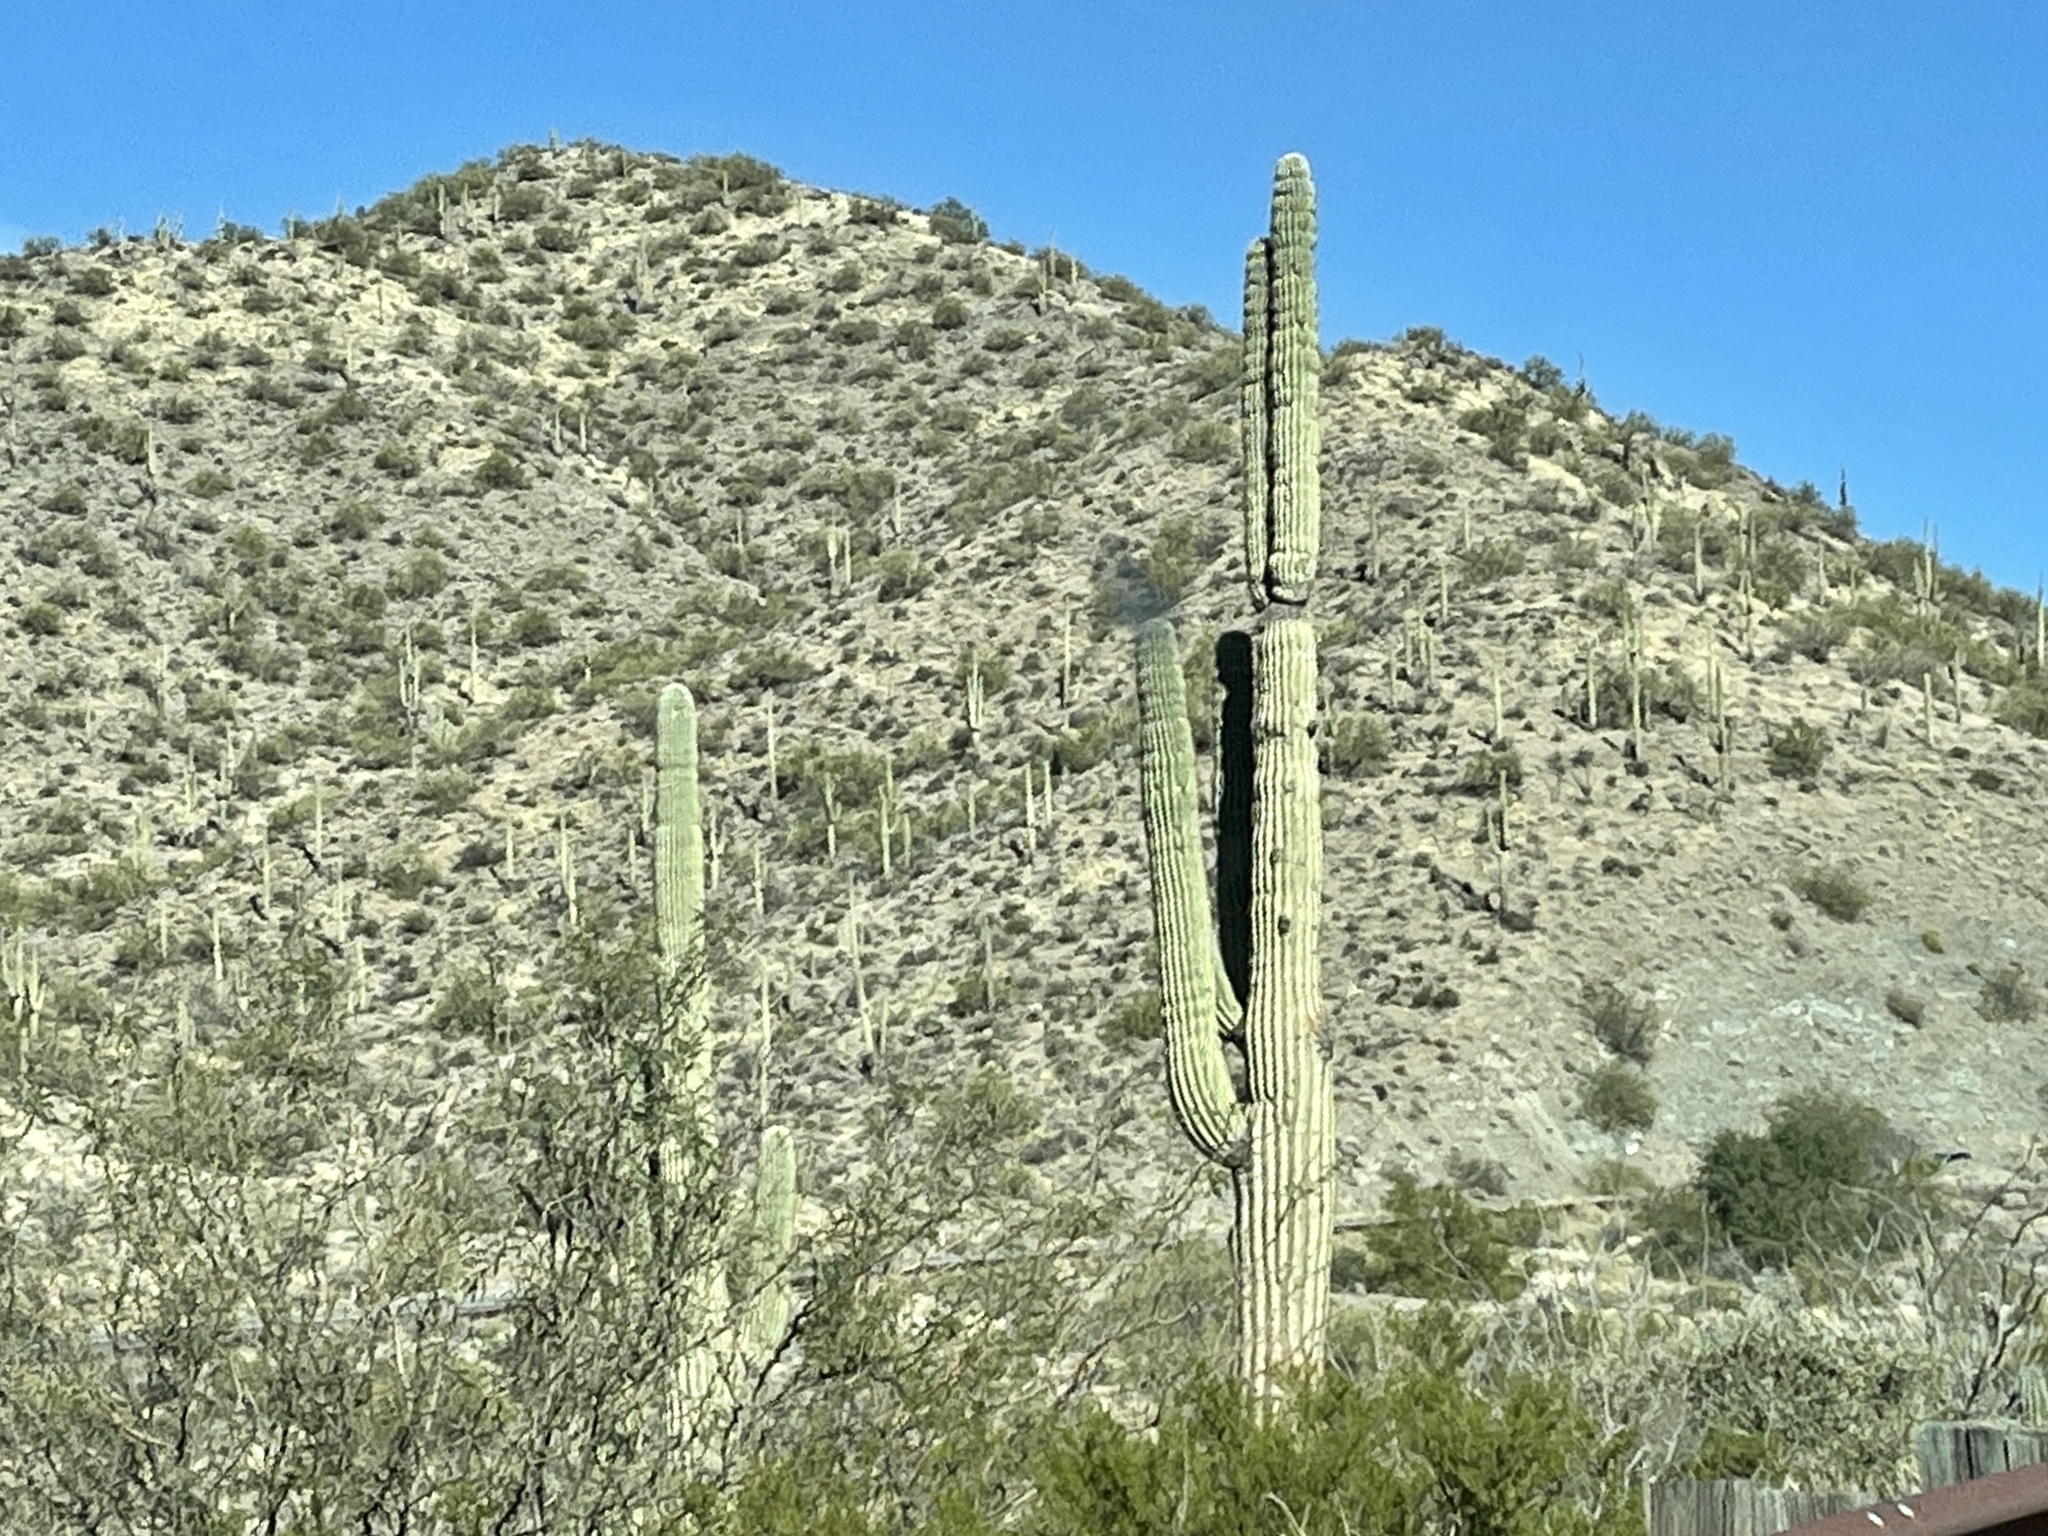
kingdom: Plantae
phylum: Tracheophyta
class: Magnoliopsida
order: Caryophyllales
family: Cactaceae
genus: Carnegiea
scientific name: Carnegiea gigantea
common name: Saguaro
